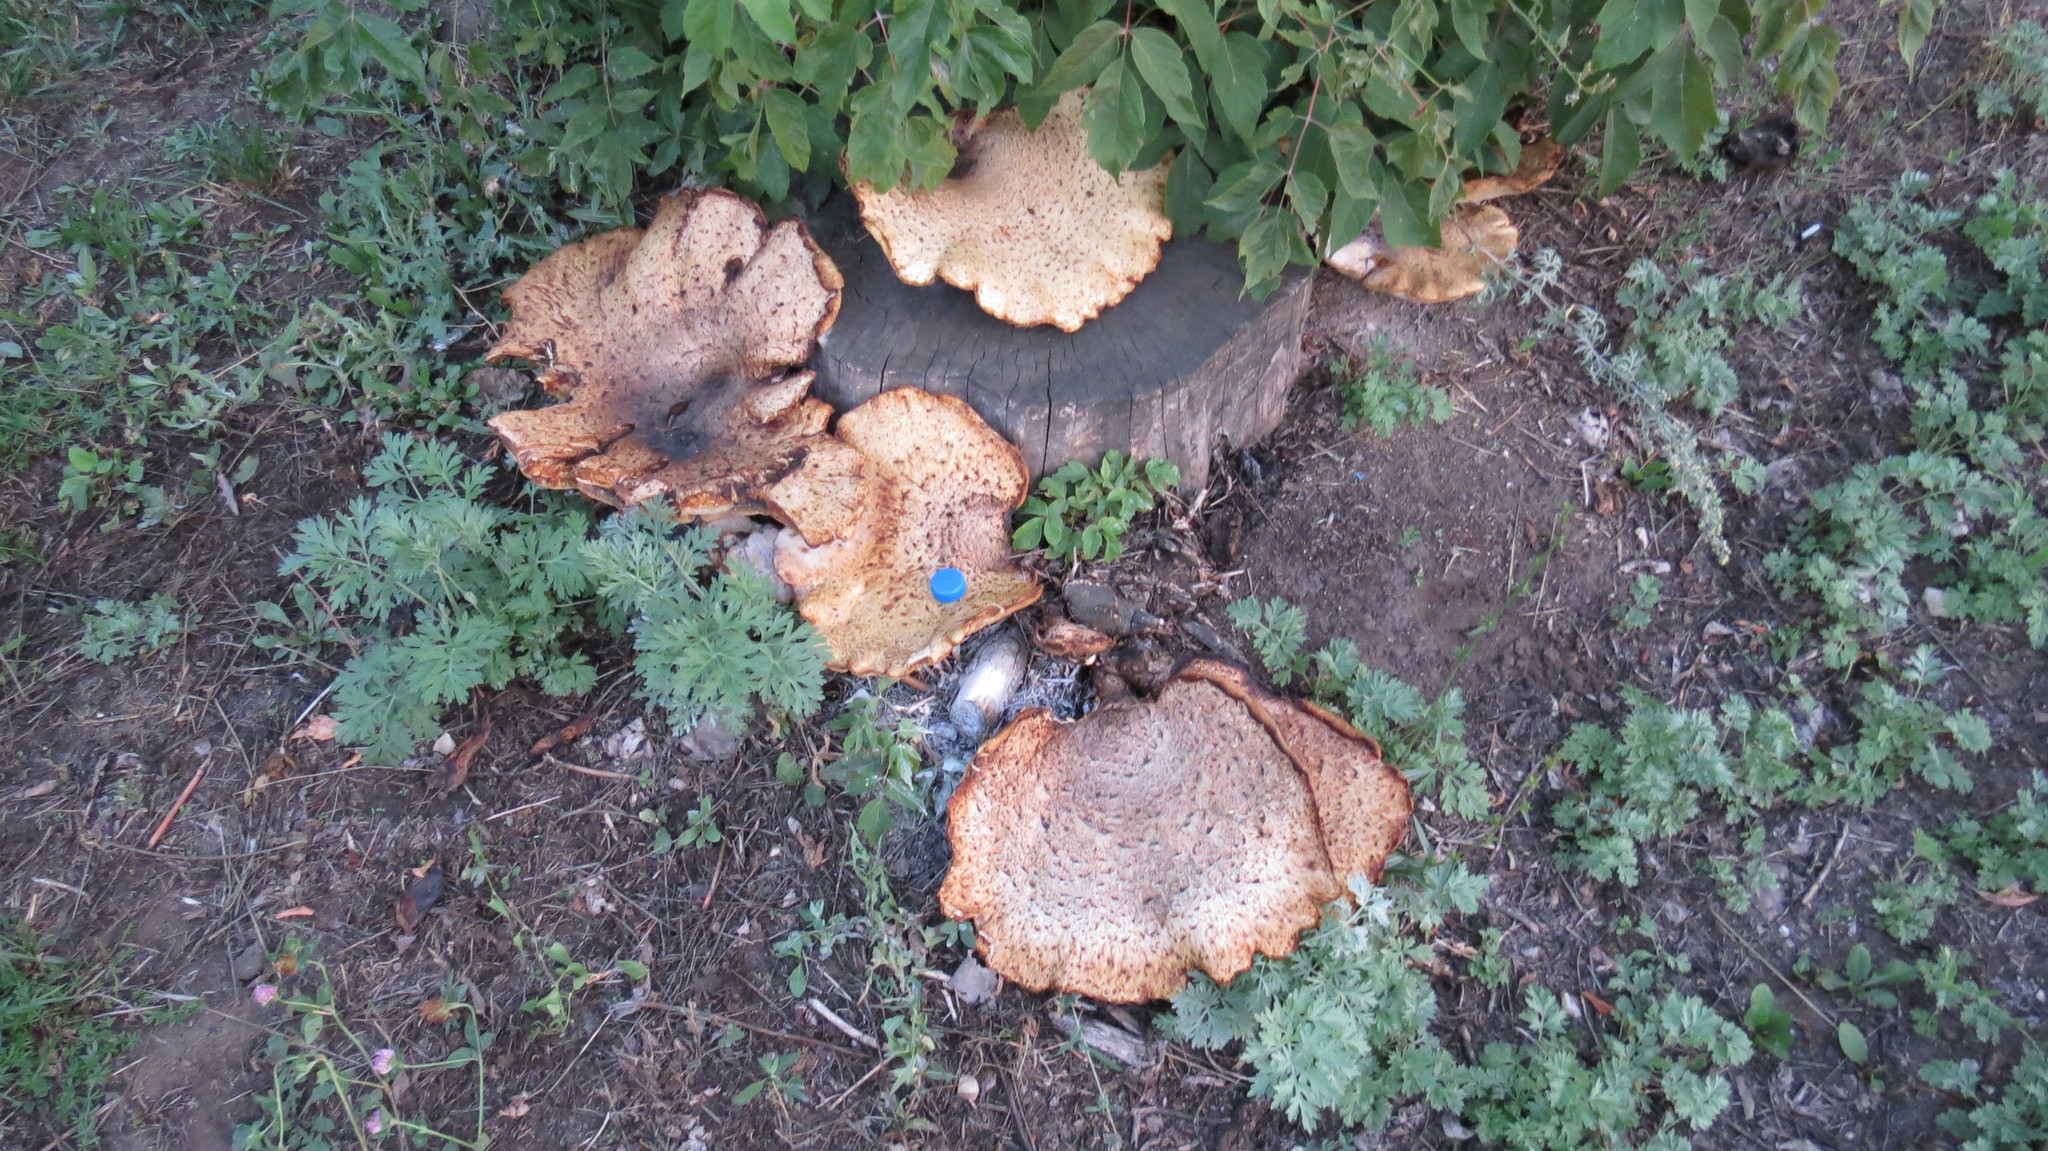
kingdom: Fungi
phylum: Basidiomycota
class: Agaricomycetes
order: Polyporales
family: Polyporaceae
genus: Cerioporus
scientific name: Cerioporus squamosus
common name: Dryad's saddle
